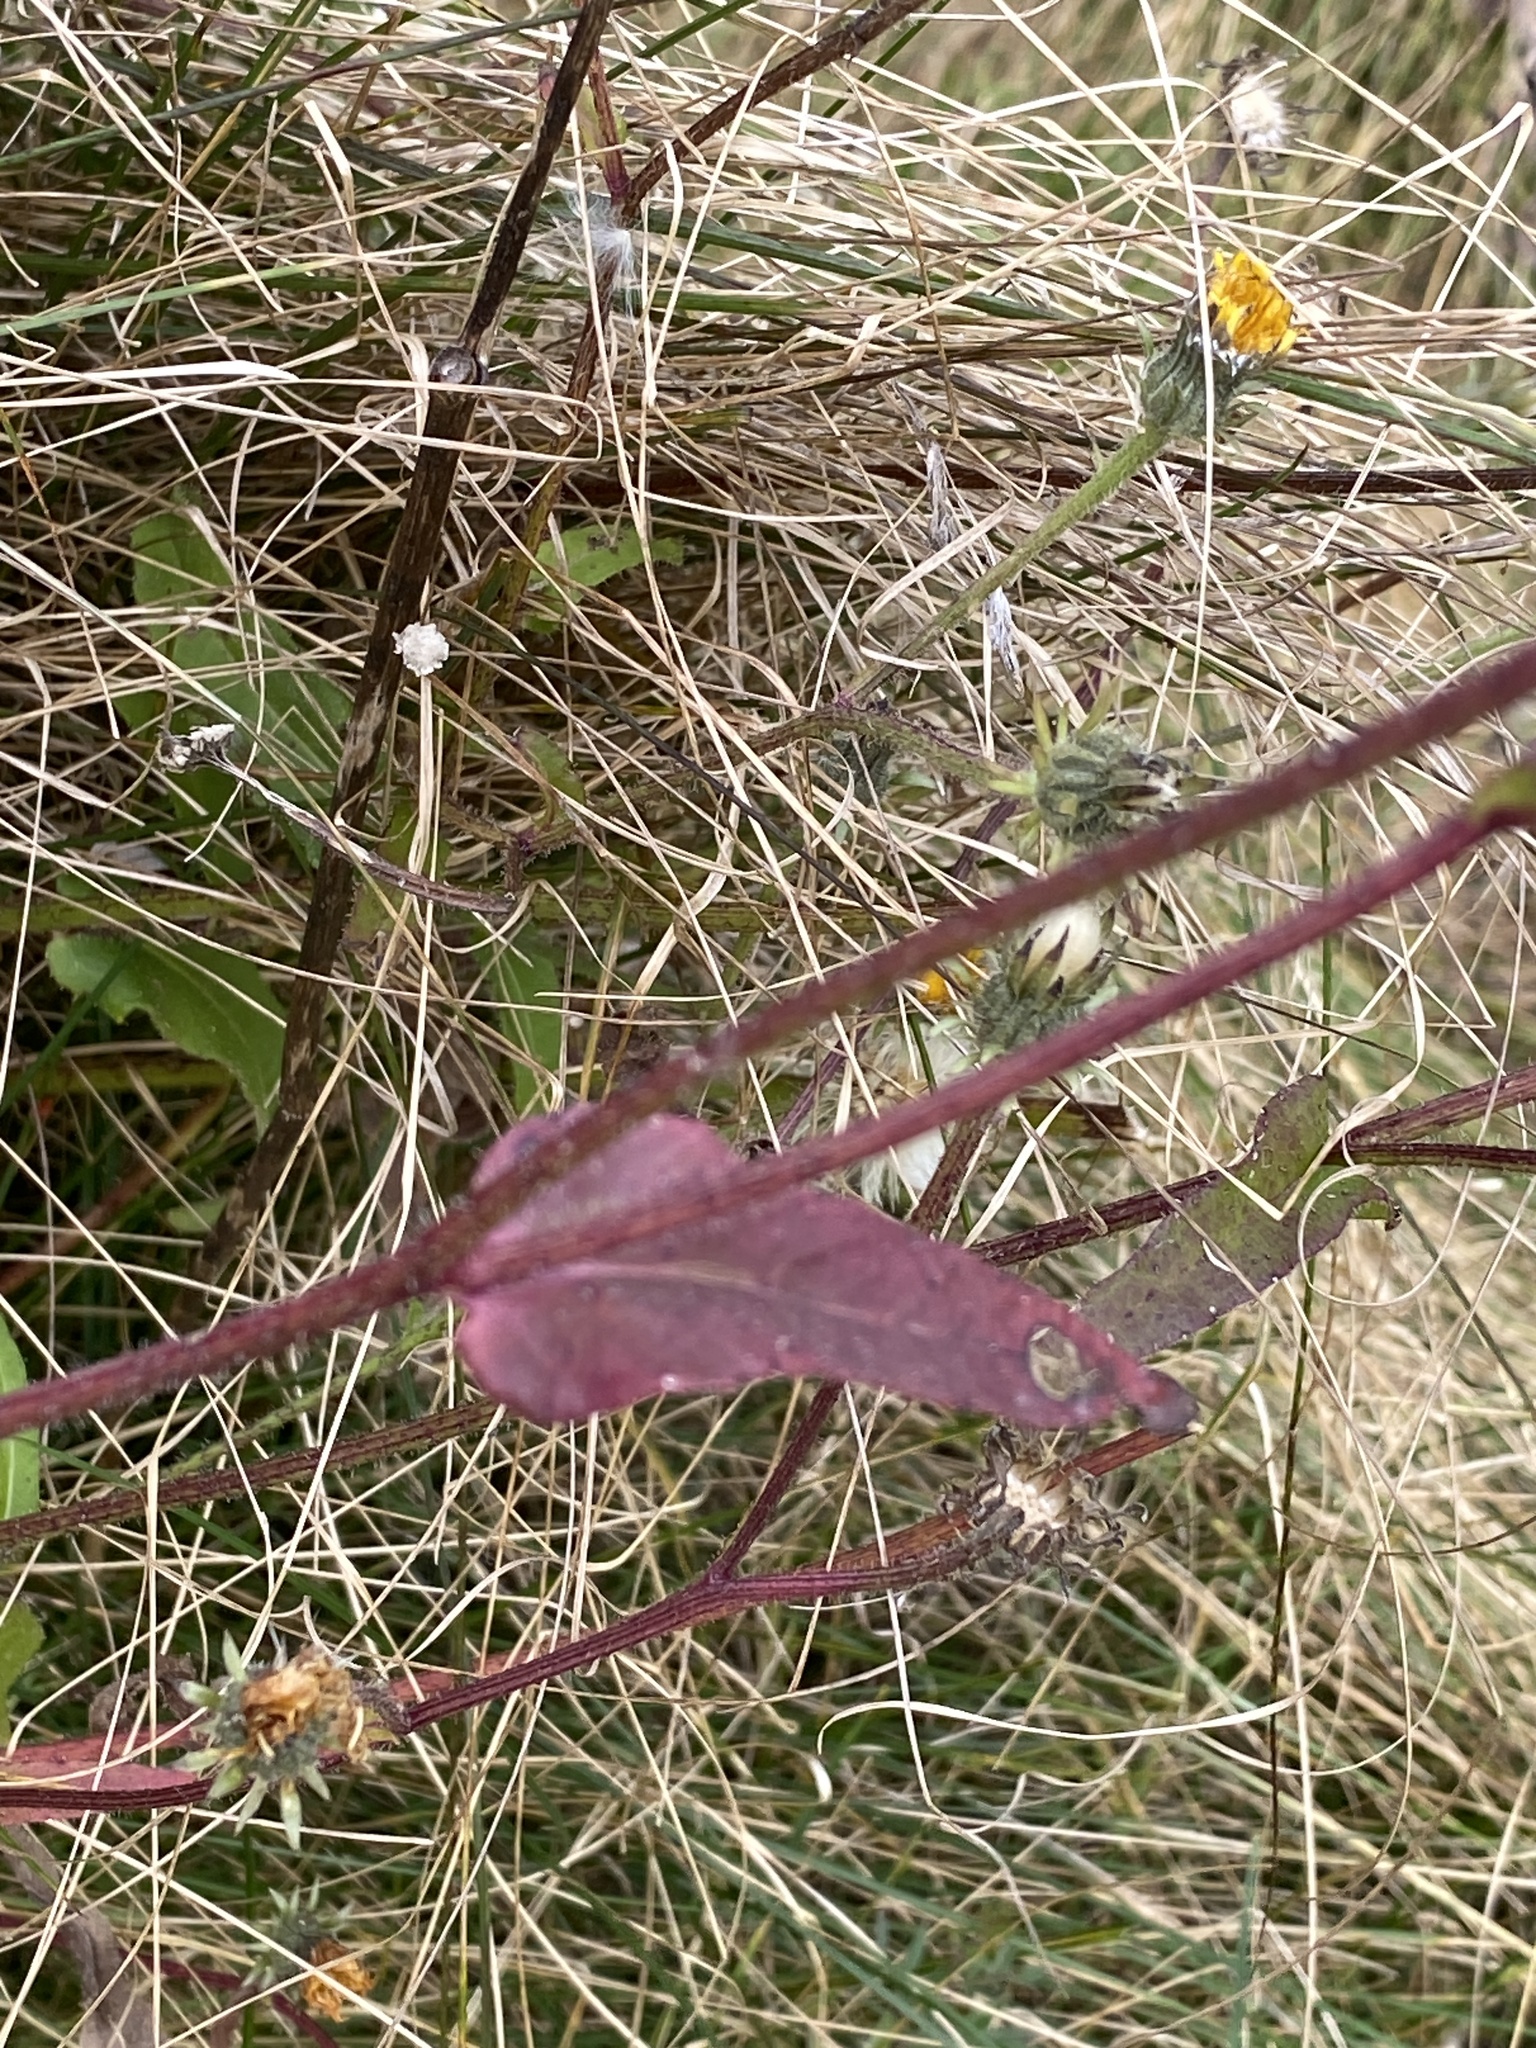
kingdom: Plantae
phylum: Tracheophyta
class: Magnoliopsida
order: Asterales
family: Asteraceae
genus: Picris
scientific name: Picris hieracioides
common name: Hawkweed oxtongue
